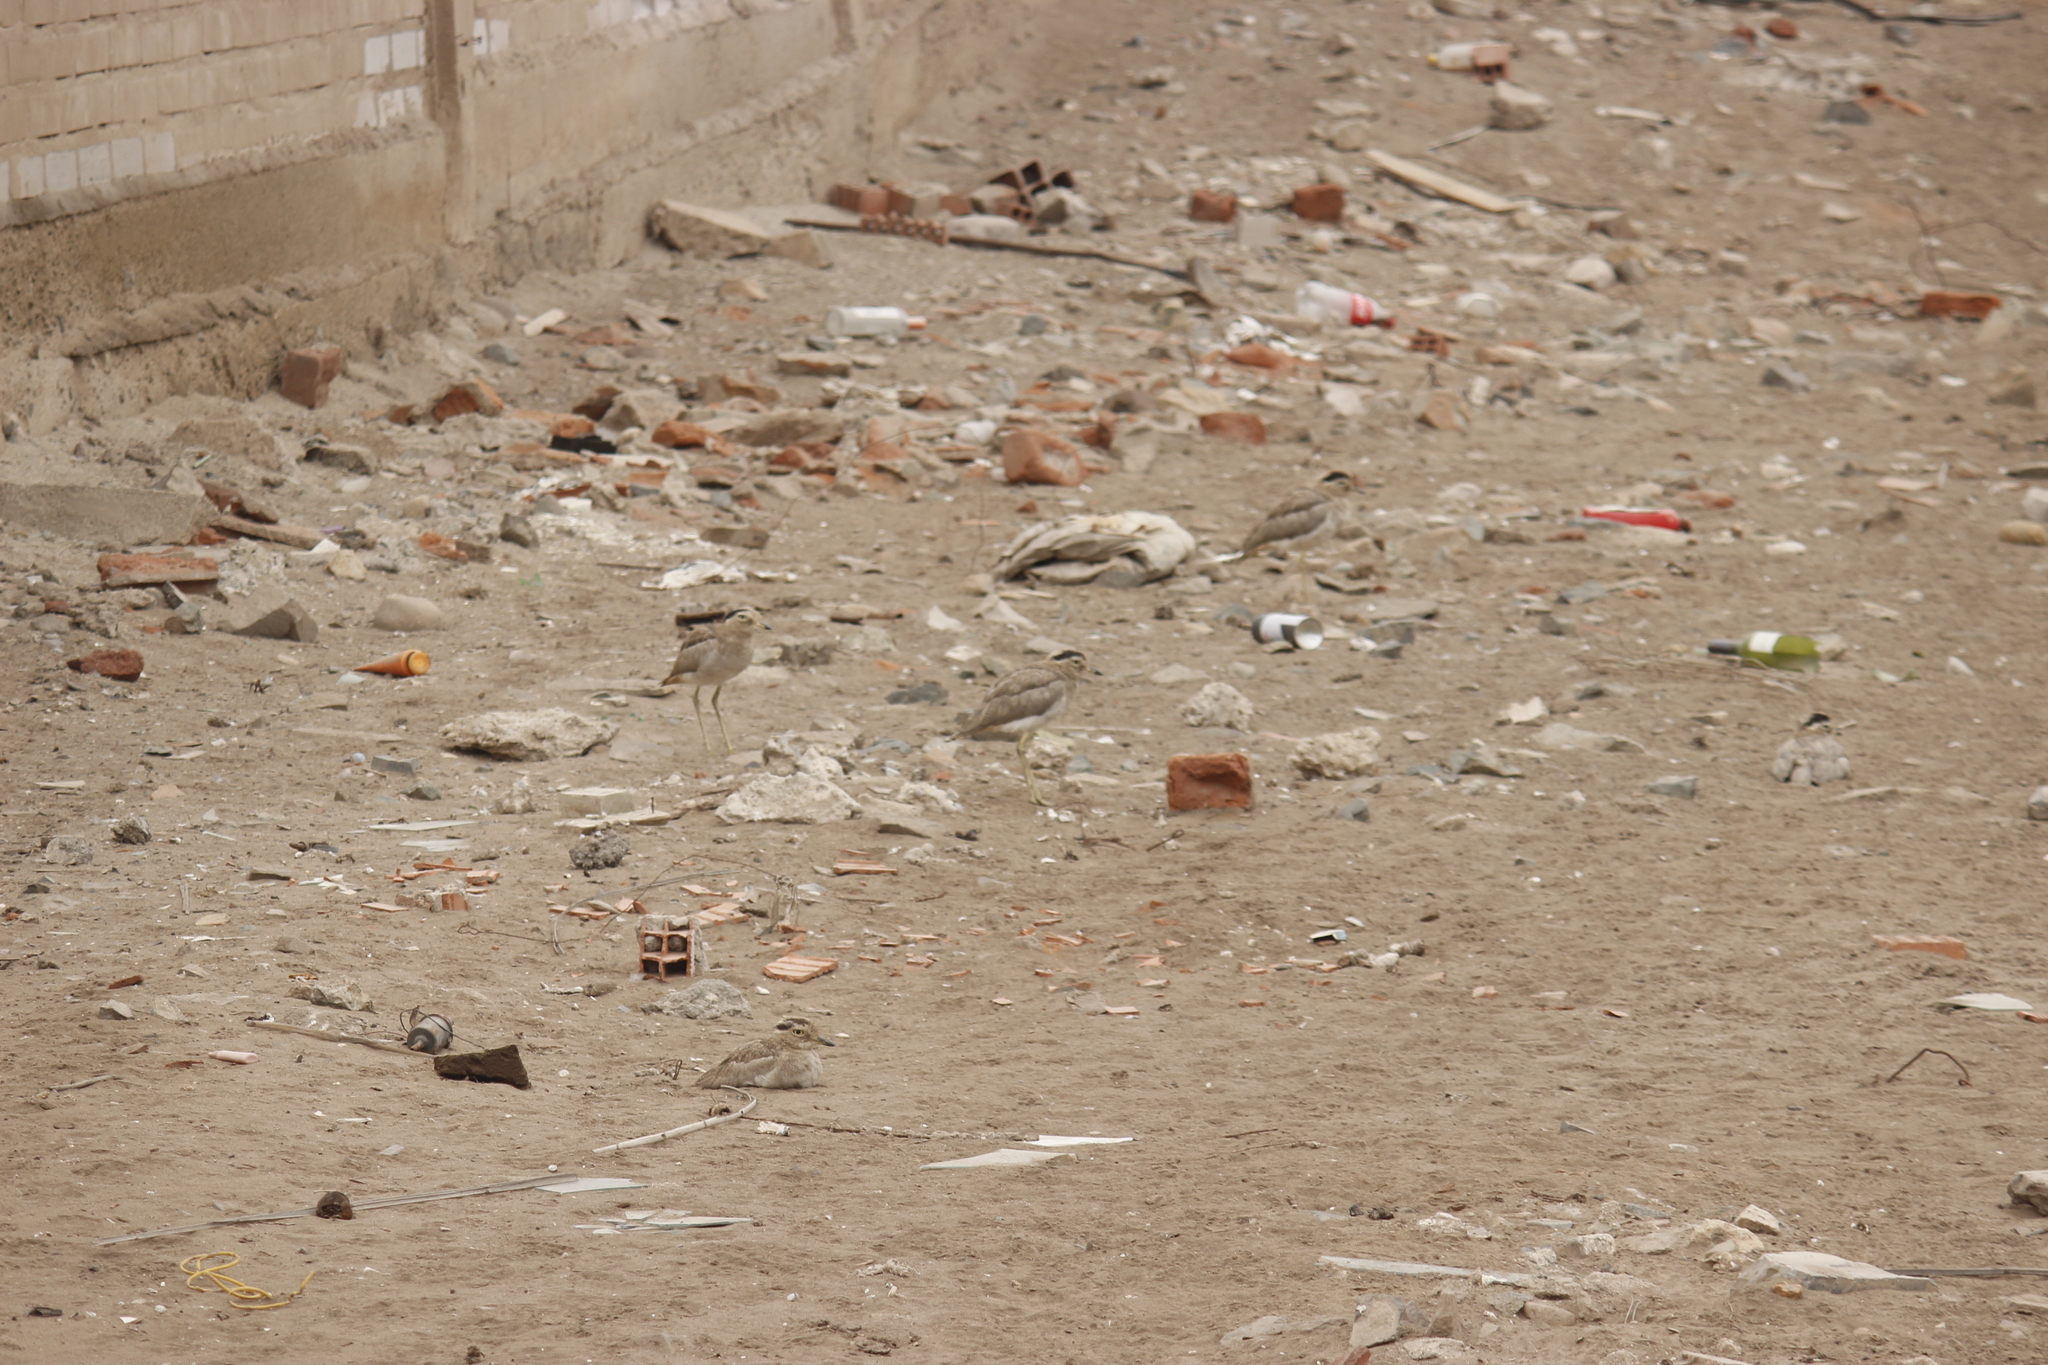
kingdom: Animalia
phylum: Chordata
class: Aves
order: Charadriiformes
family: Burhinidae
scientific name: Burhinidae
